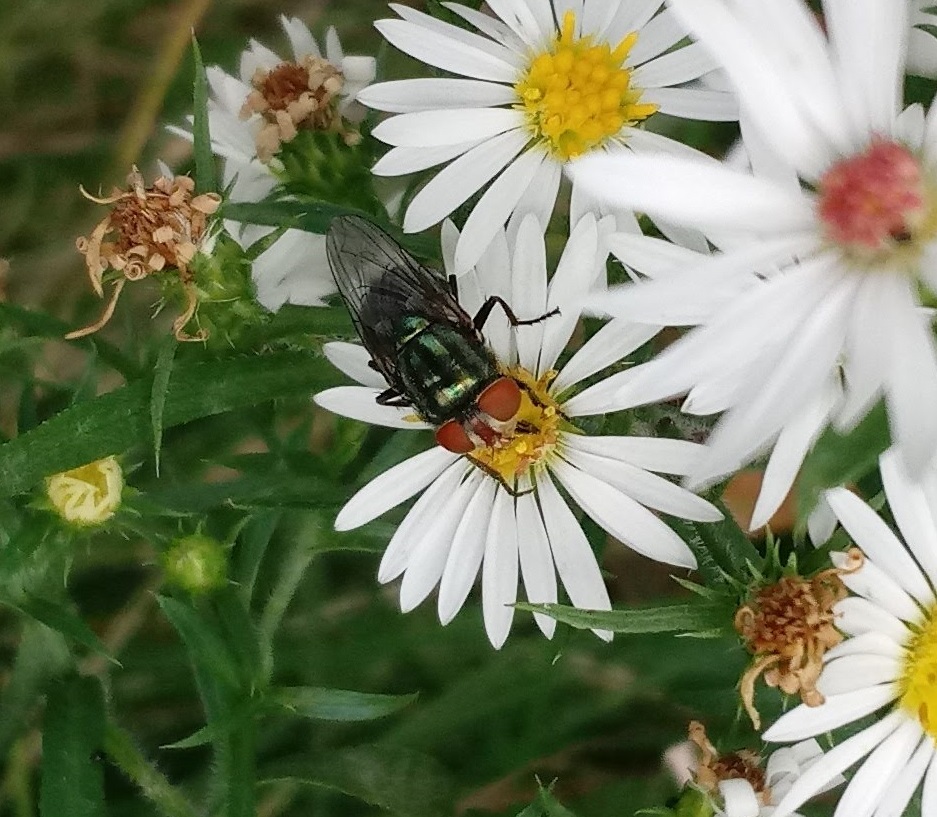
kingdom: Animalia
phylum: Arthropoda
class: Insecta
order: Diptera
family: Calliphoridae
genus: Cochliomyia
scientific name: Cochliomyia macellaria
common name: Secondary screwworm
